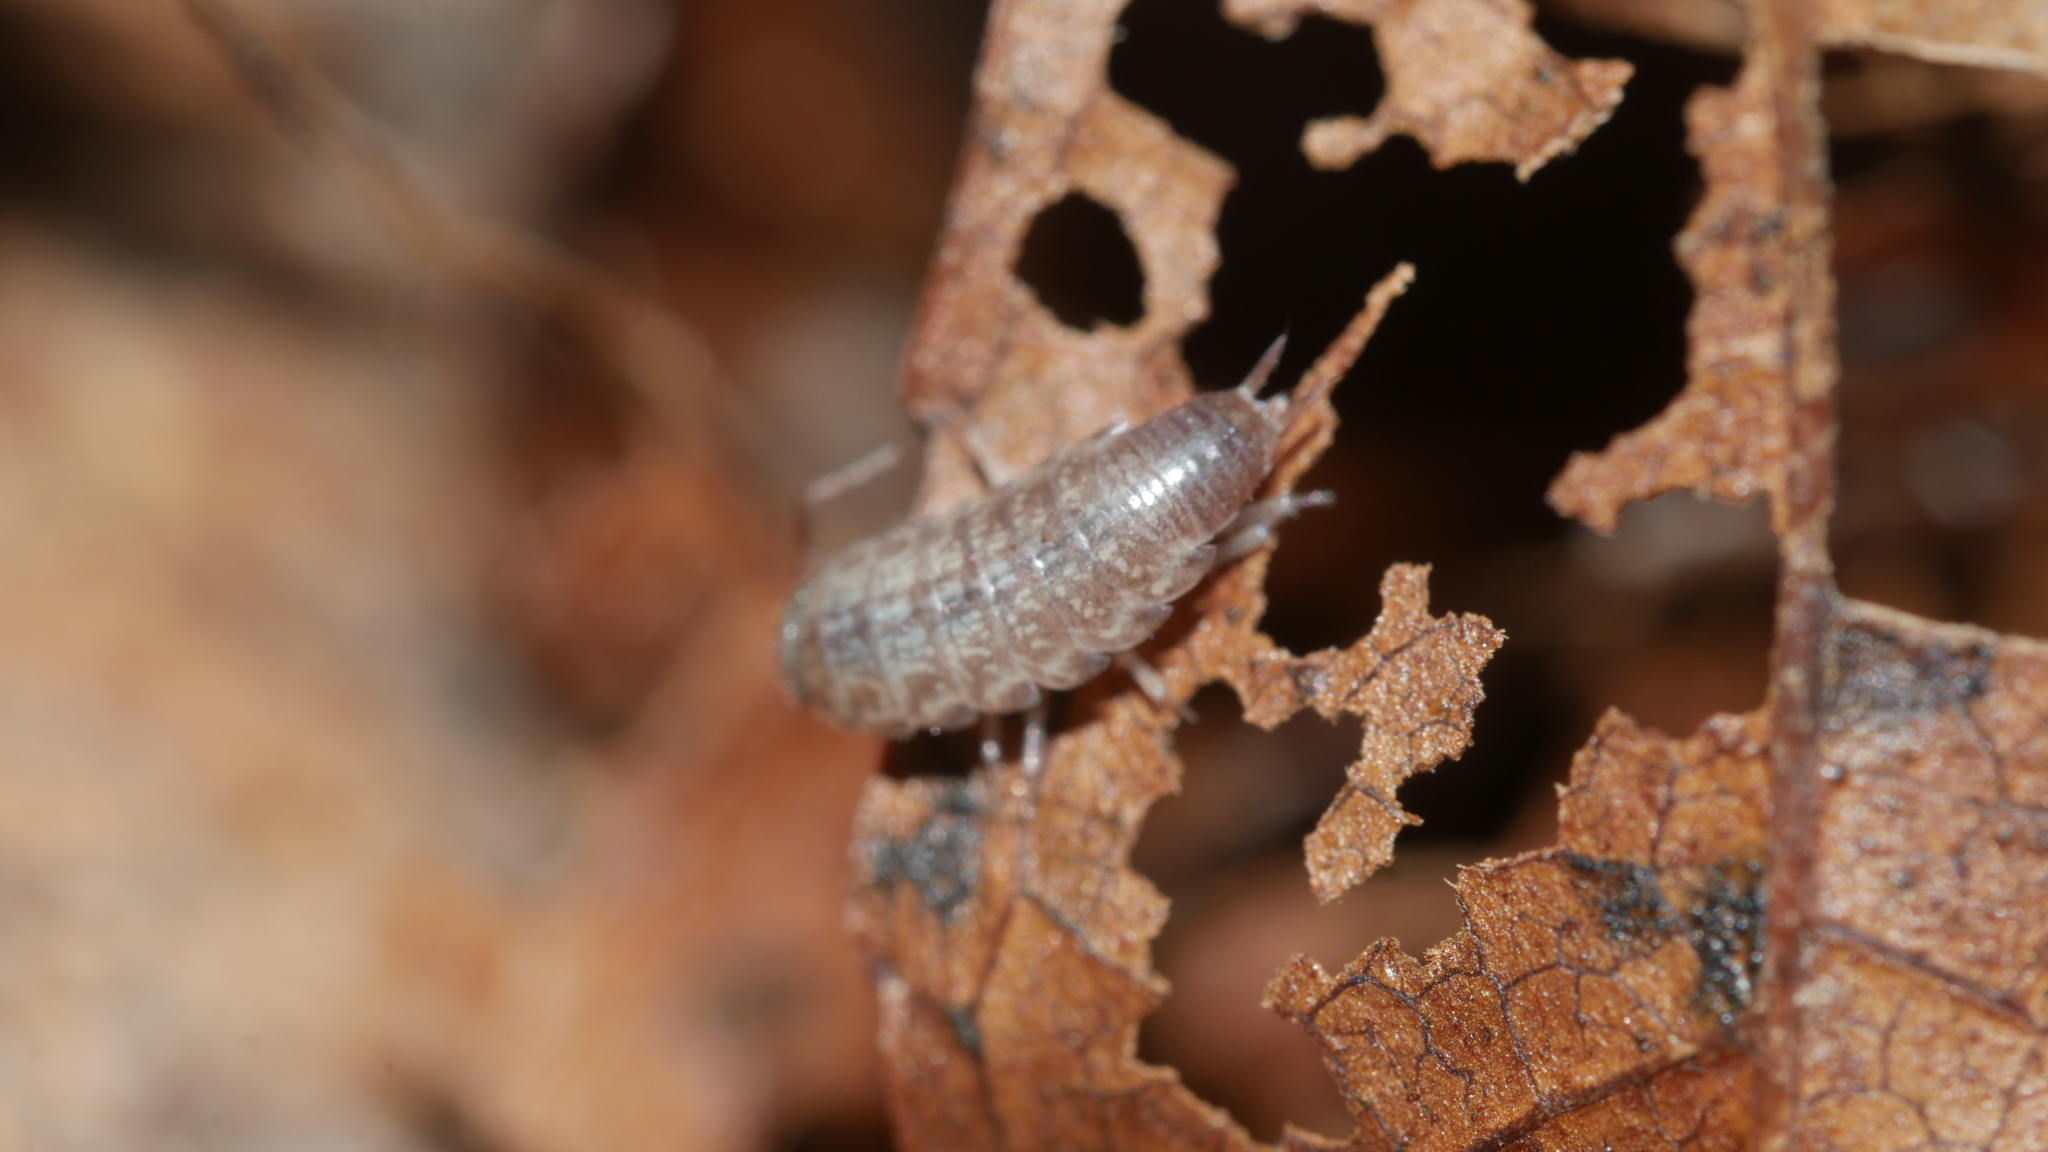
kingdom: Animalia
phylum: Arthropoda
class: Malacostraca
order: Isopoda
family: Philosciidae
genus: Chaetophiloscia
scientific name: Chaetophiloscia sicula
